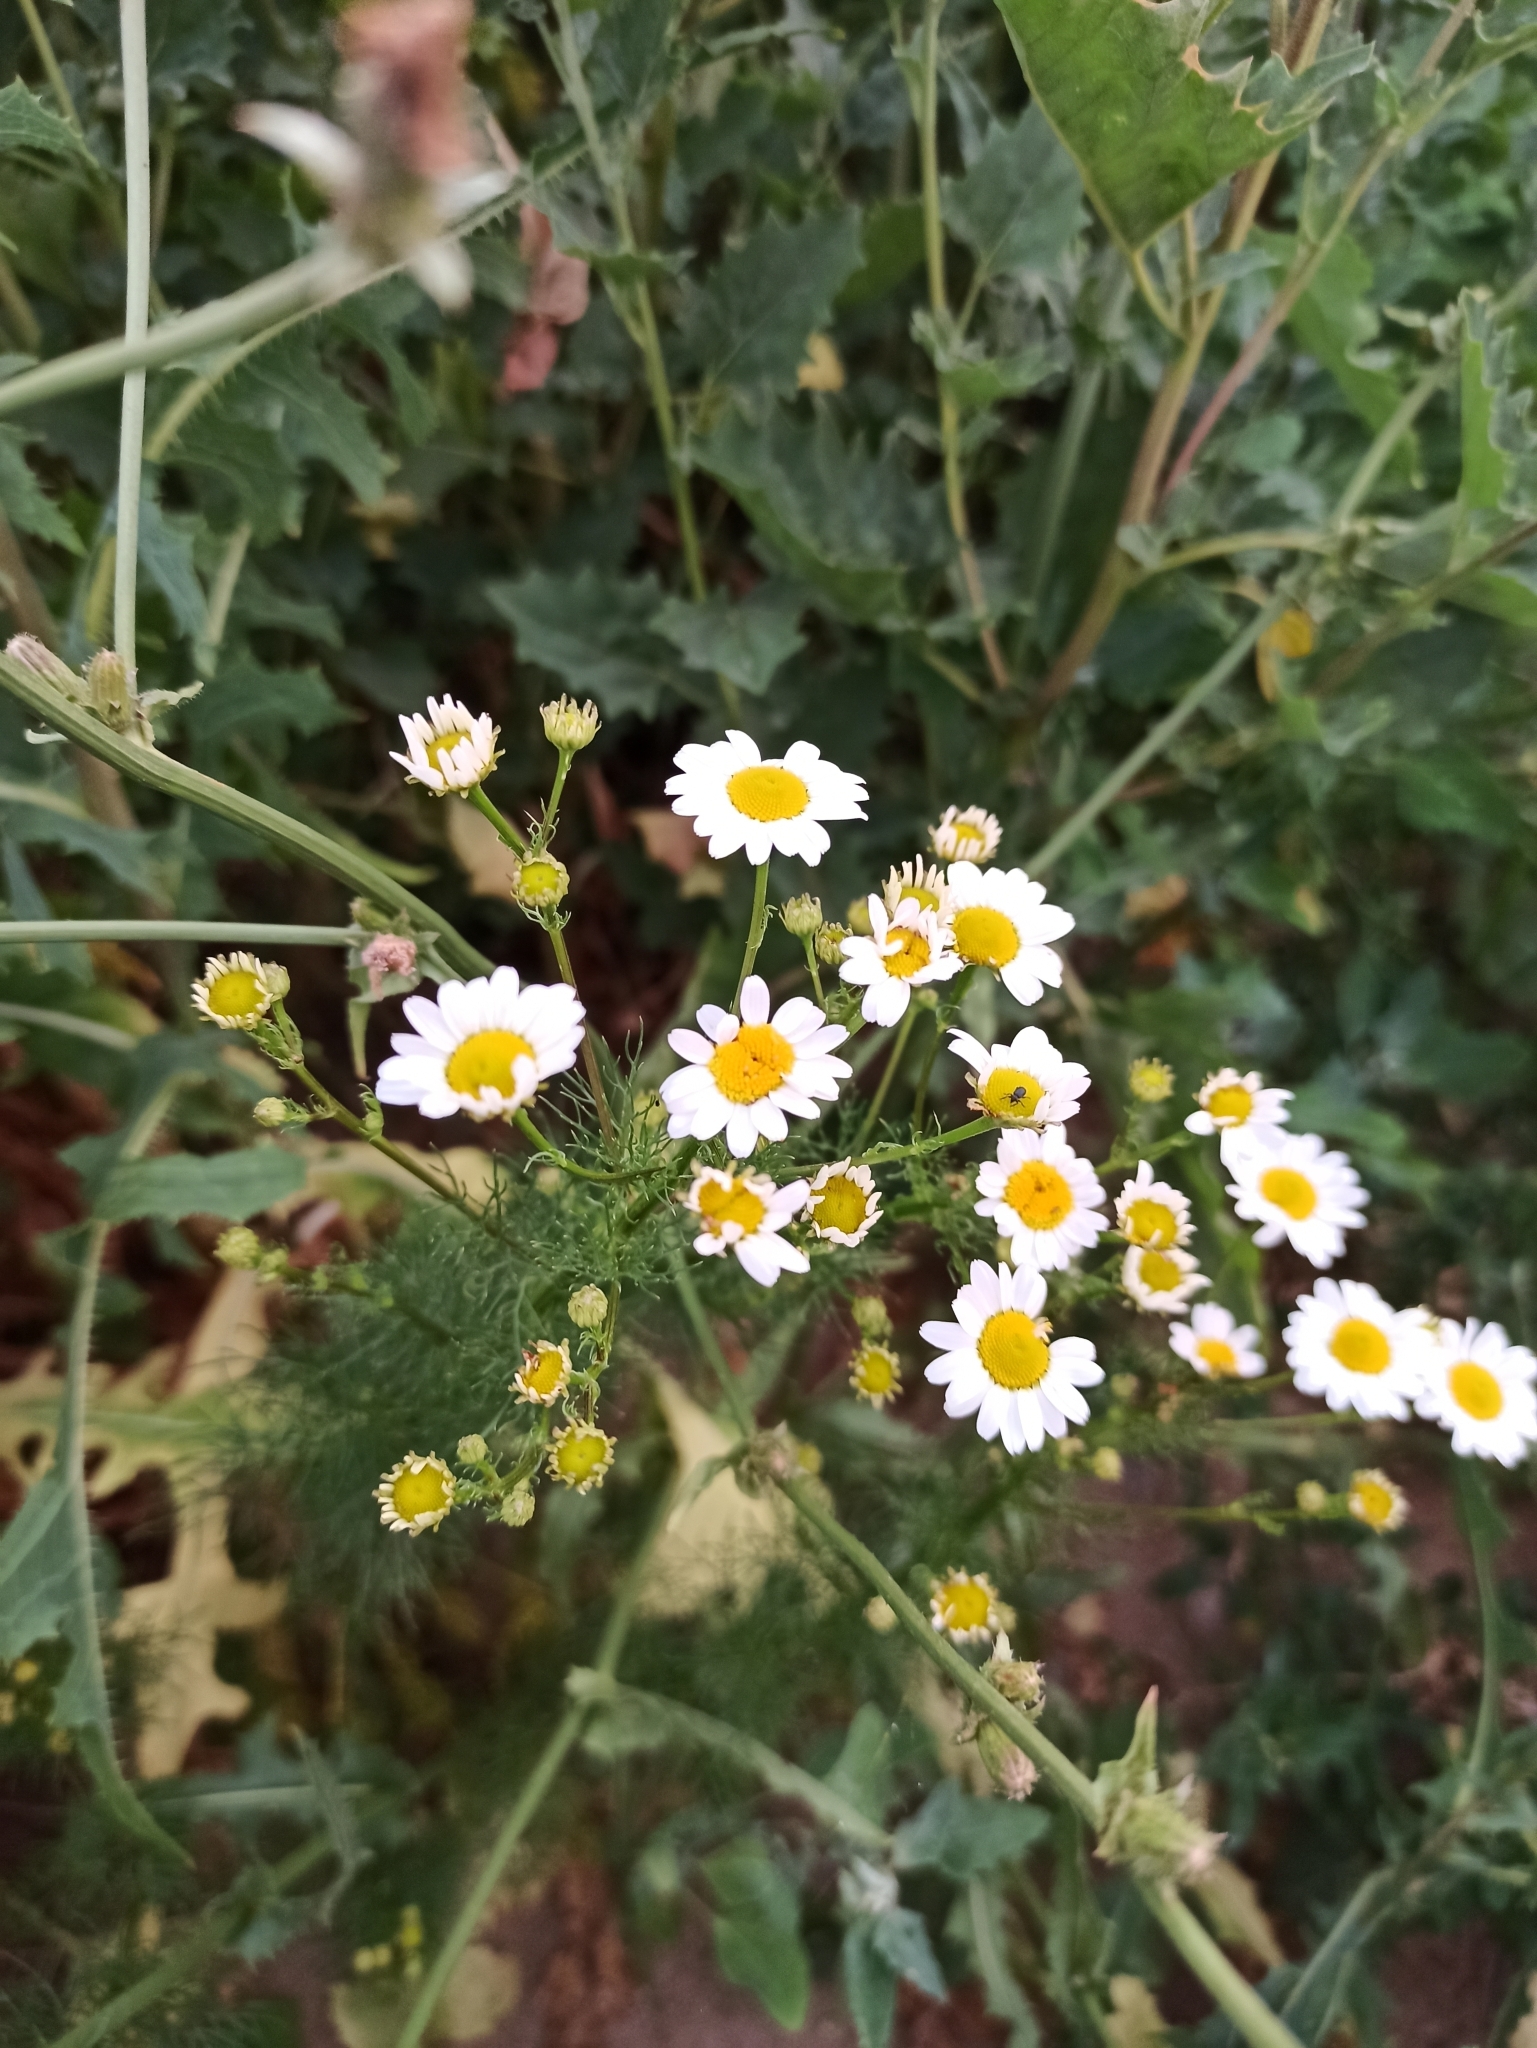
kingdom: Plantae
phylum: Tracheophyta
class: Magnoliopsida
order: Asterales
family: Asteraceae
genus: Tripleurospermum
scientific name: Tripleurospermum inodorum
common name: Scentless mayweed
